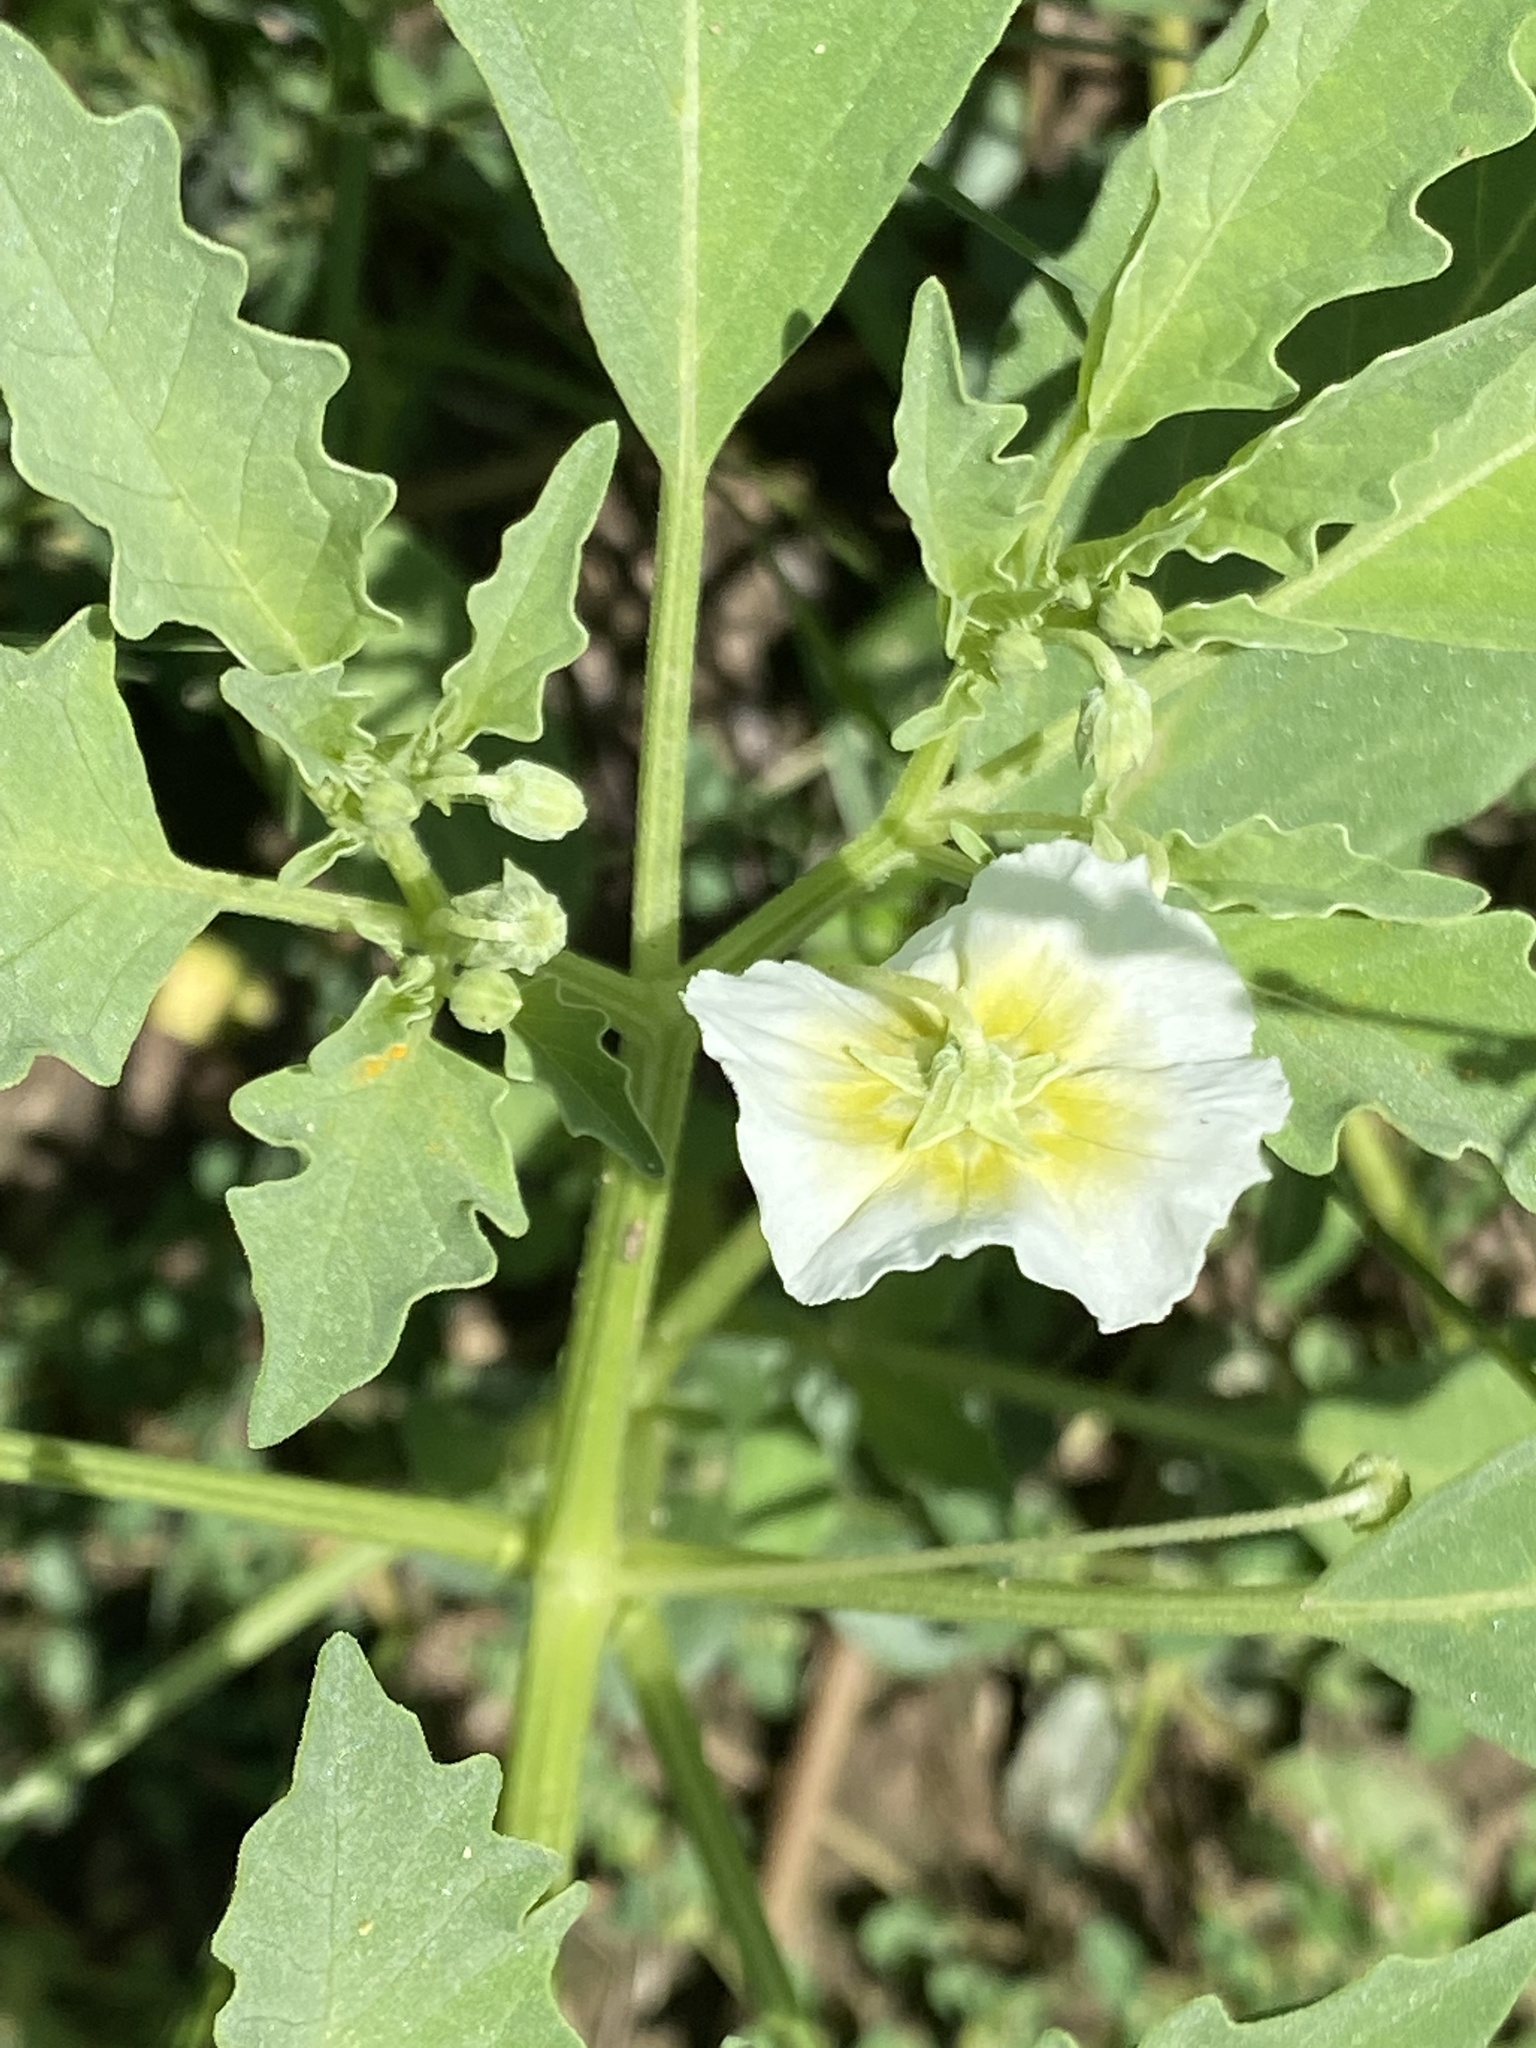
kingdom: Plantae
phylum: Tracheophyta
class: Magnoliopsida
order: Solanales
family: Solanaceae
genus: Physalis
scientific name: Physalis acutifolia
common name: Wright's ground-cherry
